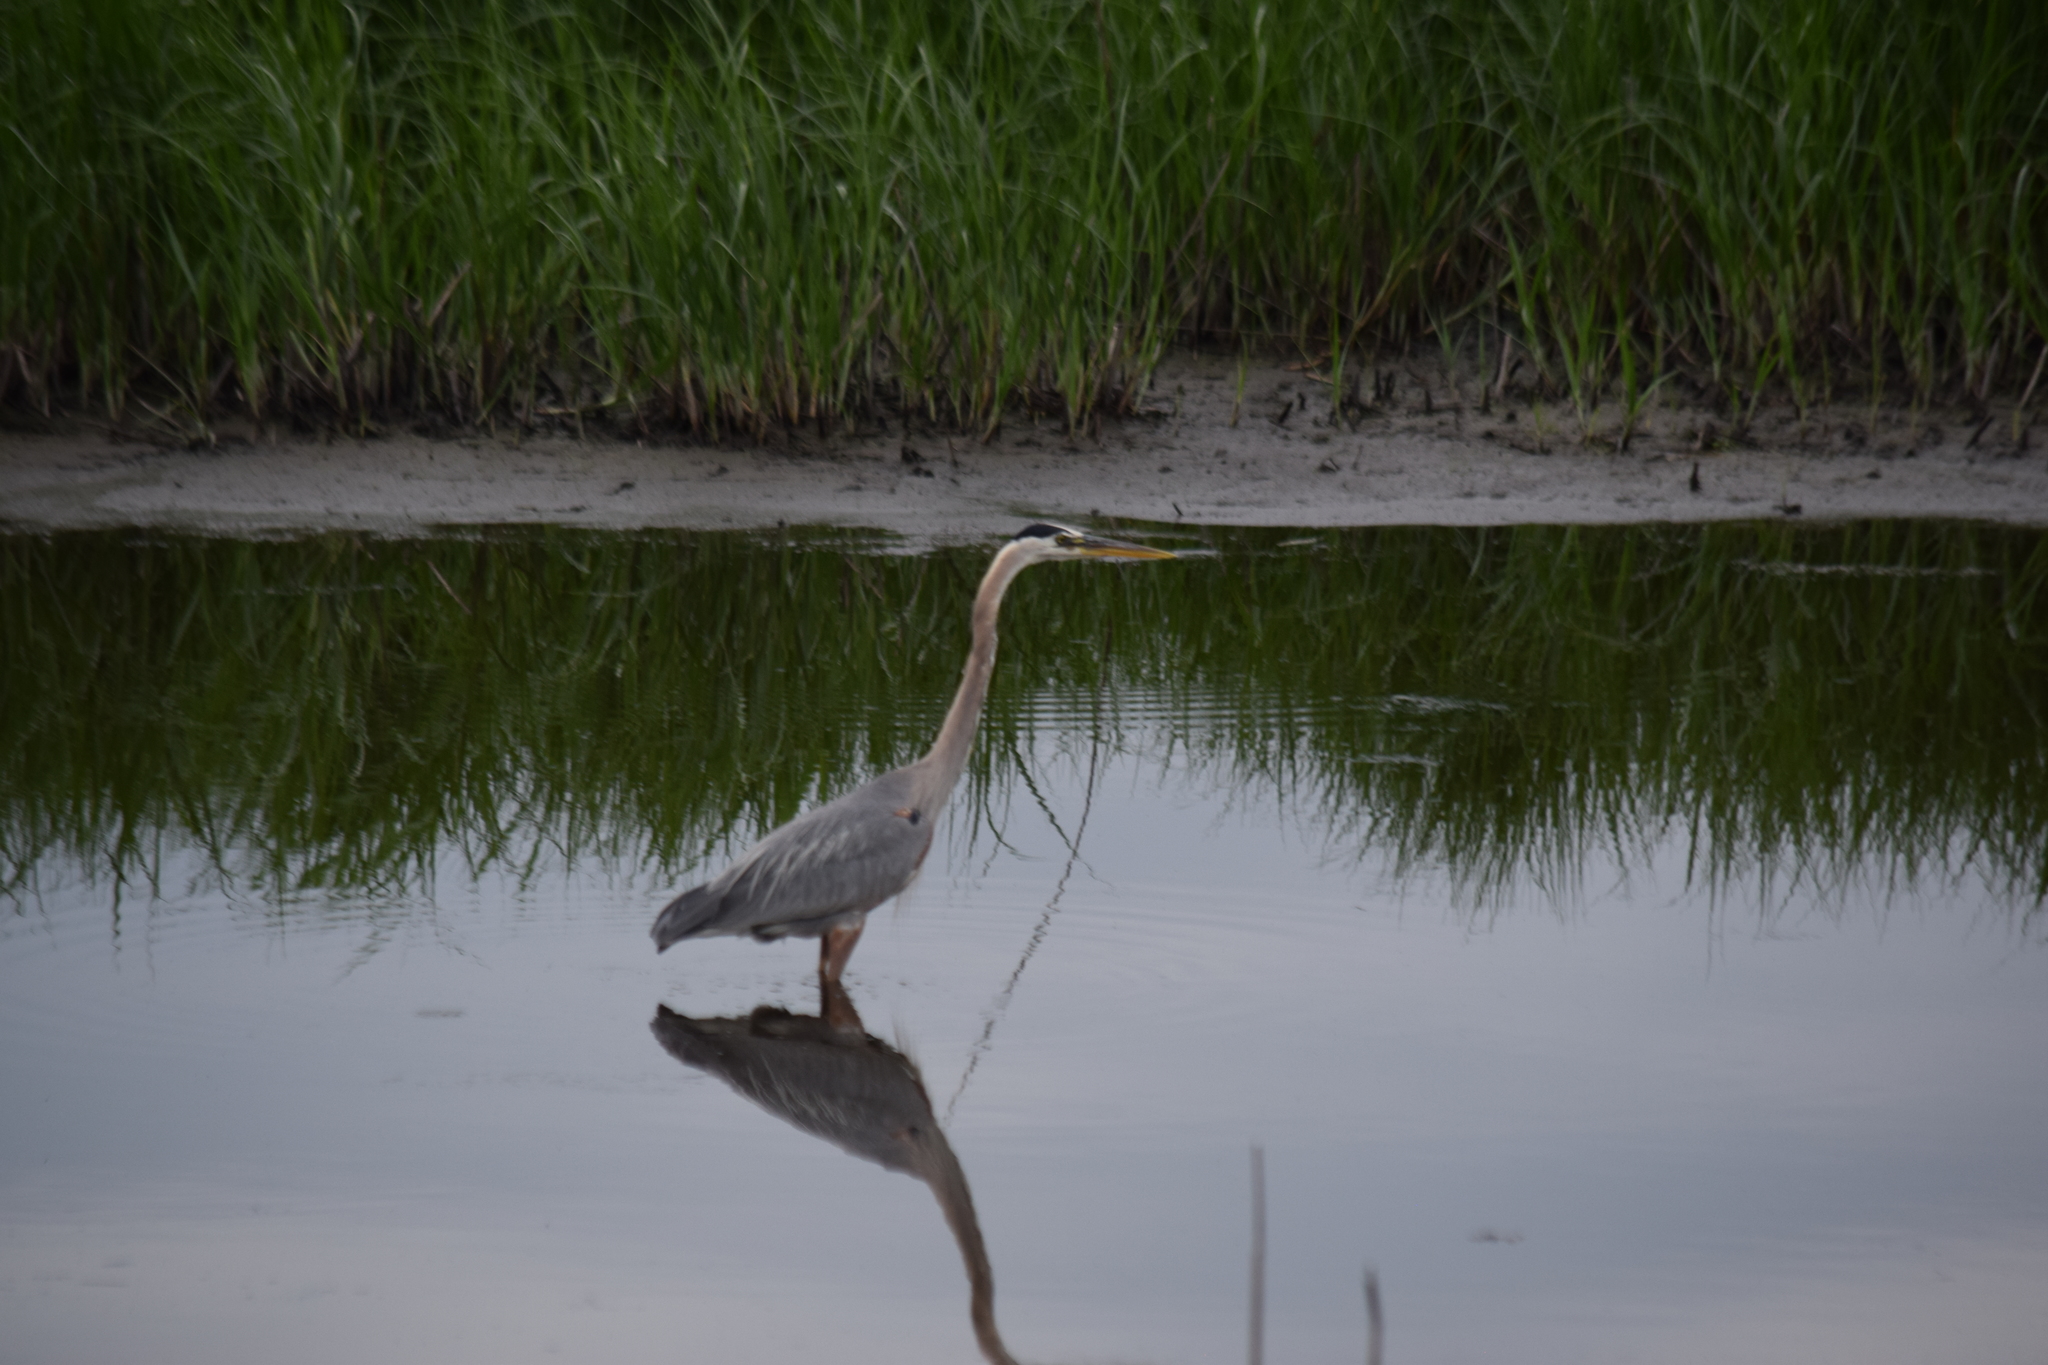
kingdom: Animalia
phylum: Chordata
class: Aves
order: Pelecaniformes
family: Ardeidae
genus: Ardea
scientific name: Ardea herodias
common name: Great blue heron
